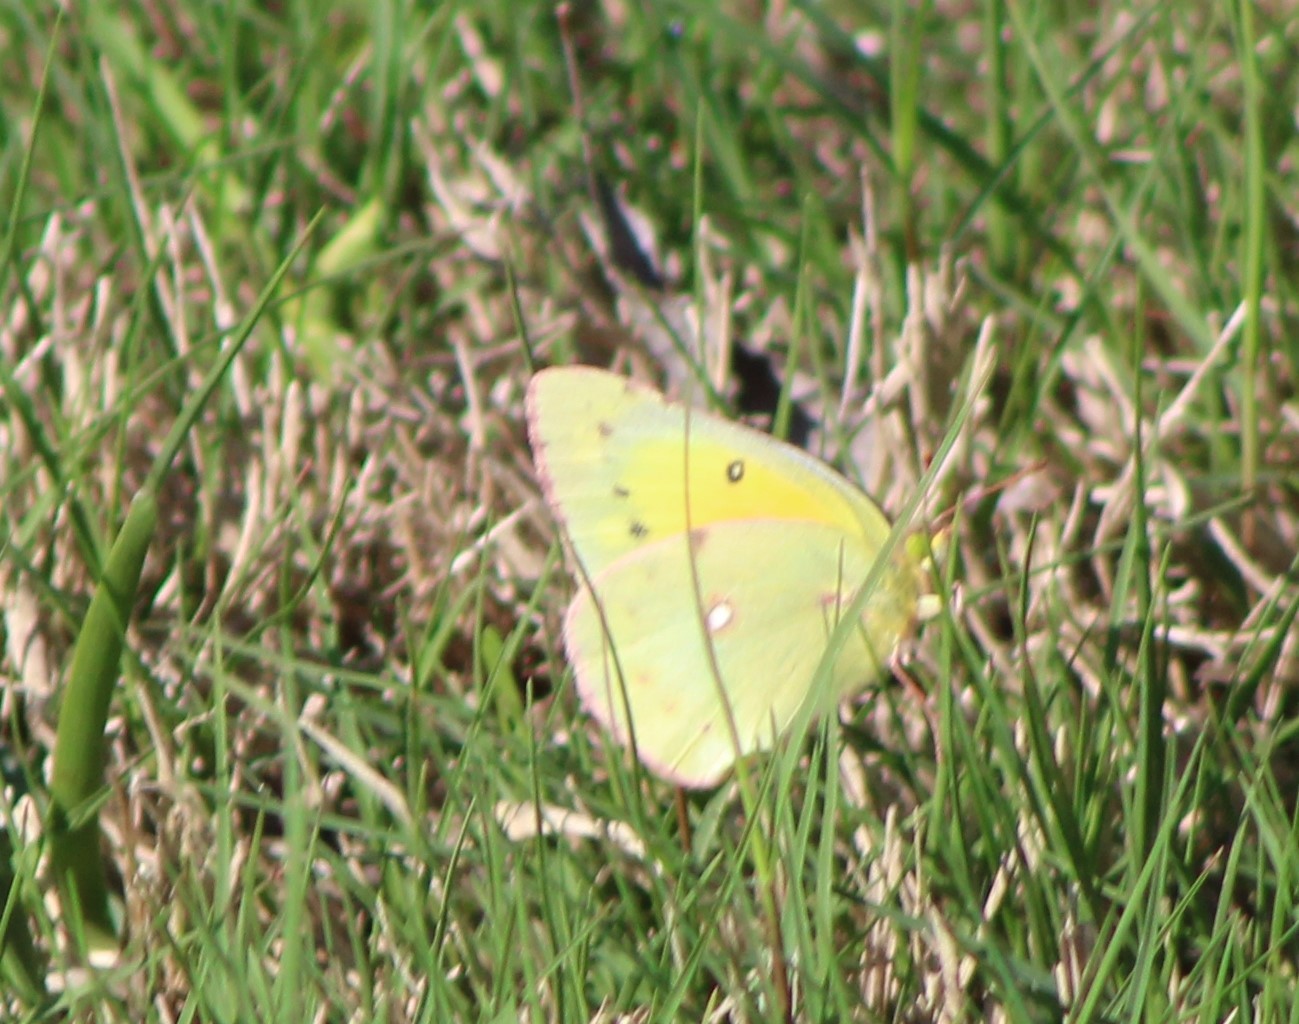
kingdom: Animalia
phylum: Arthropoda
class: Insecta
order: Lepidoptera
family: Pieridae
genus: Colias
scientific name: Colias eurytheme
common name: Alfalfa butterfly
